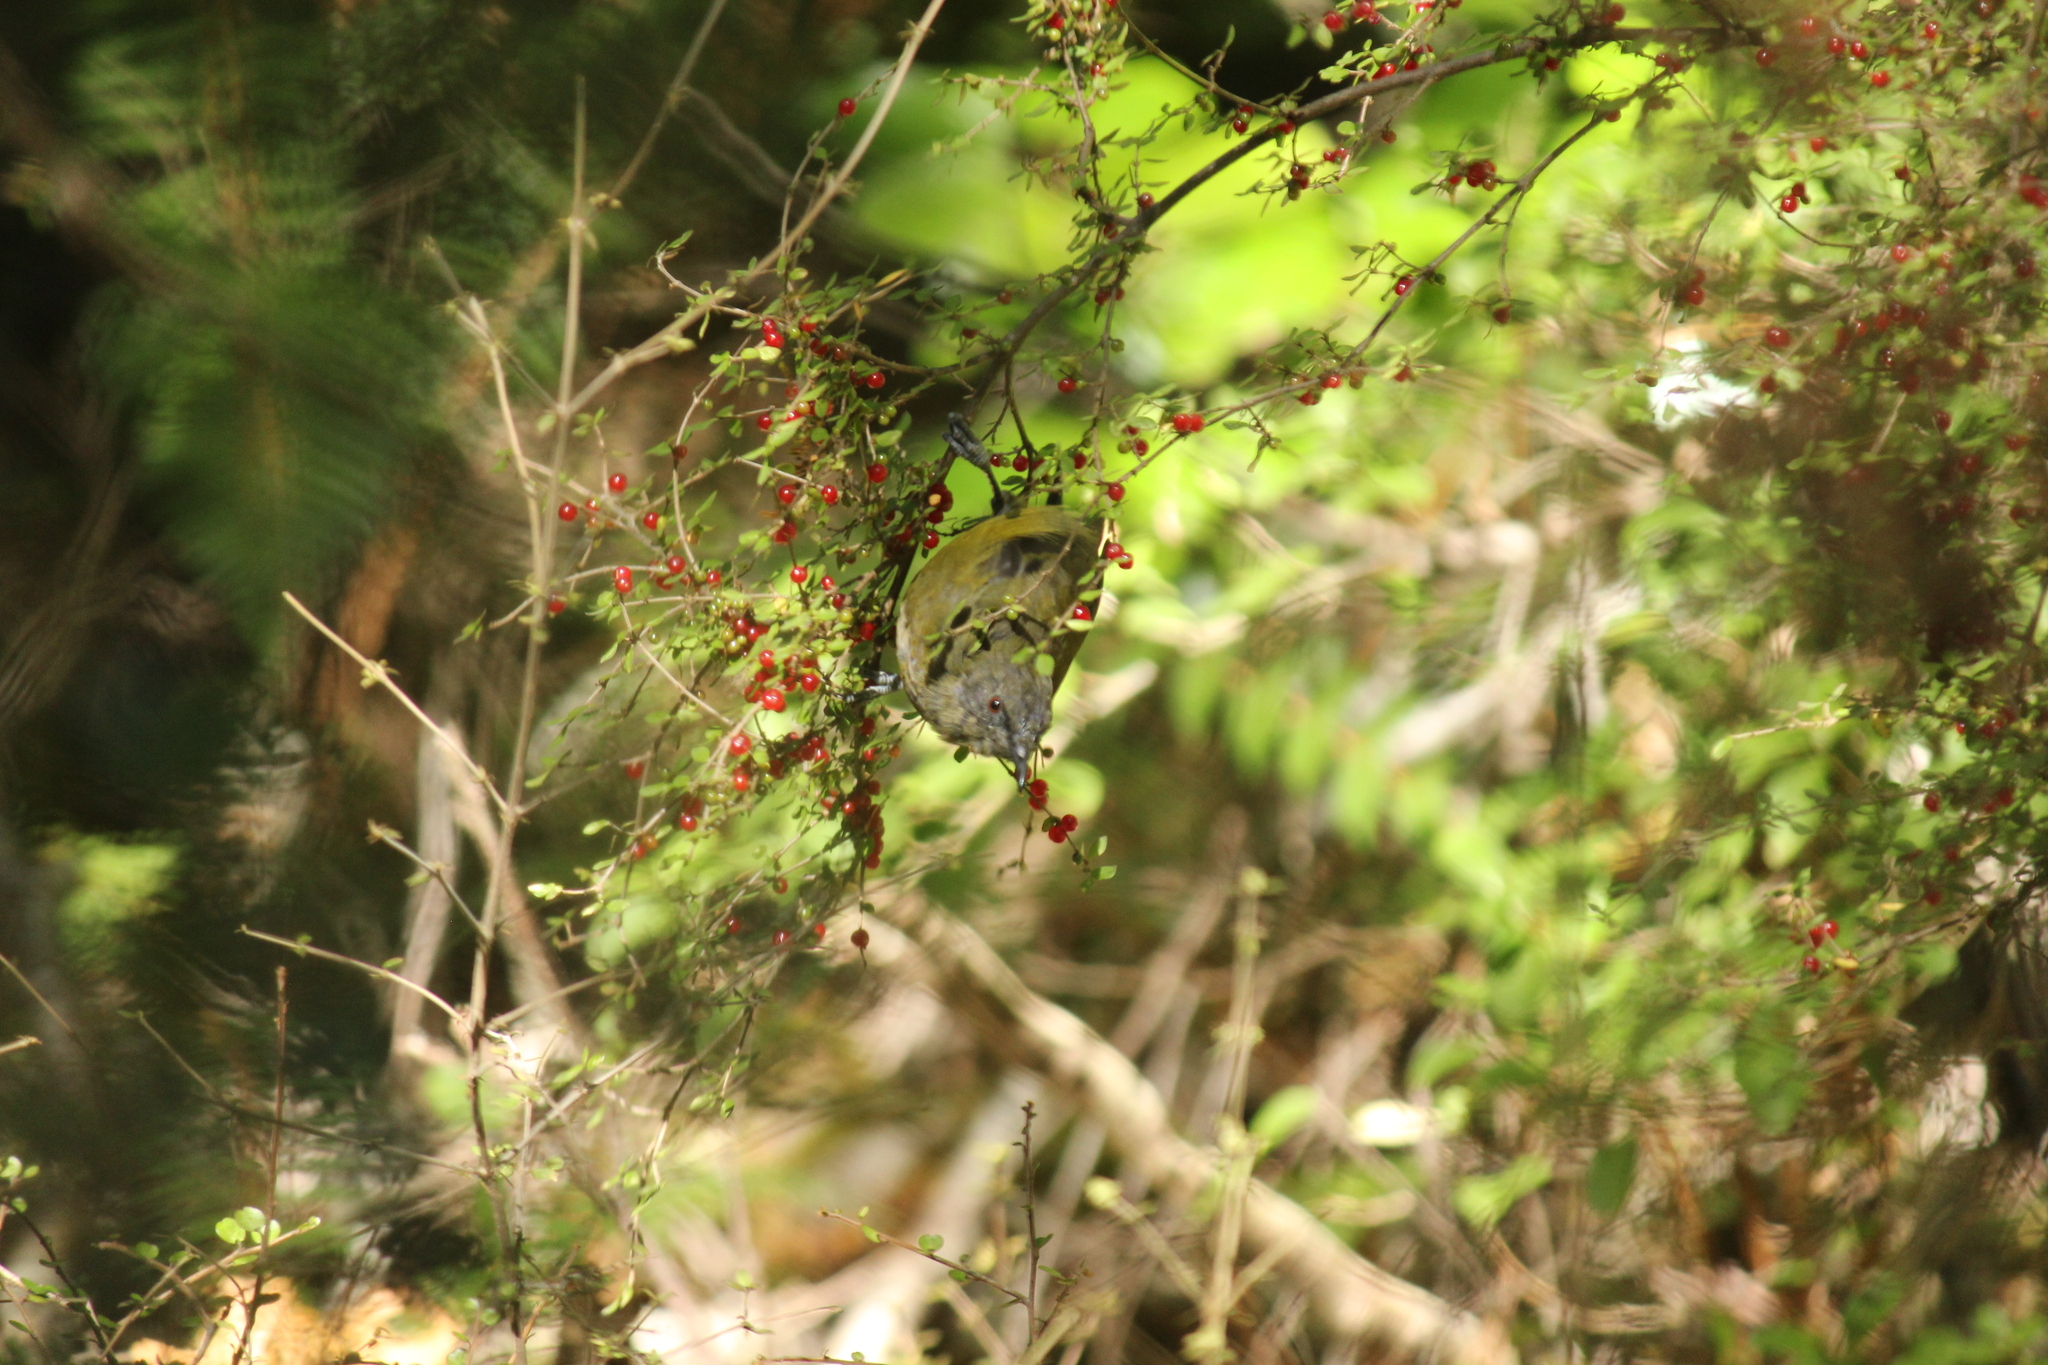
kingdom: Animalia
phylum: Chordata
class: Aves
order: Passeriformes
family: Meliphagidae
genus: Anthornis
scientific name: Anthornis melanura
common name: New zealand bellbird
